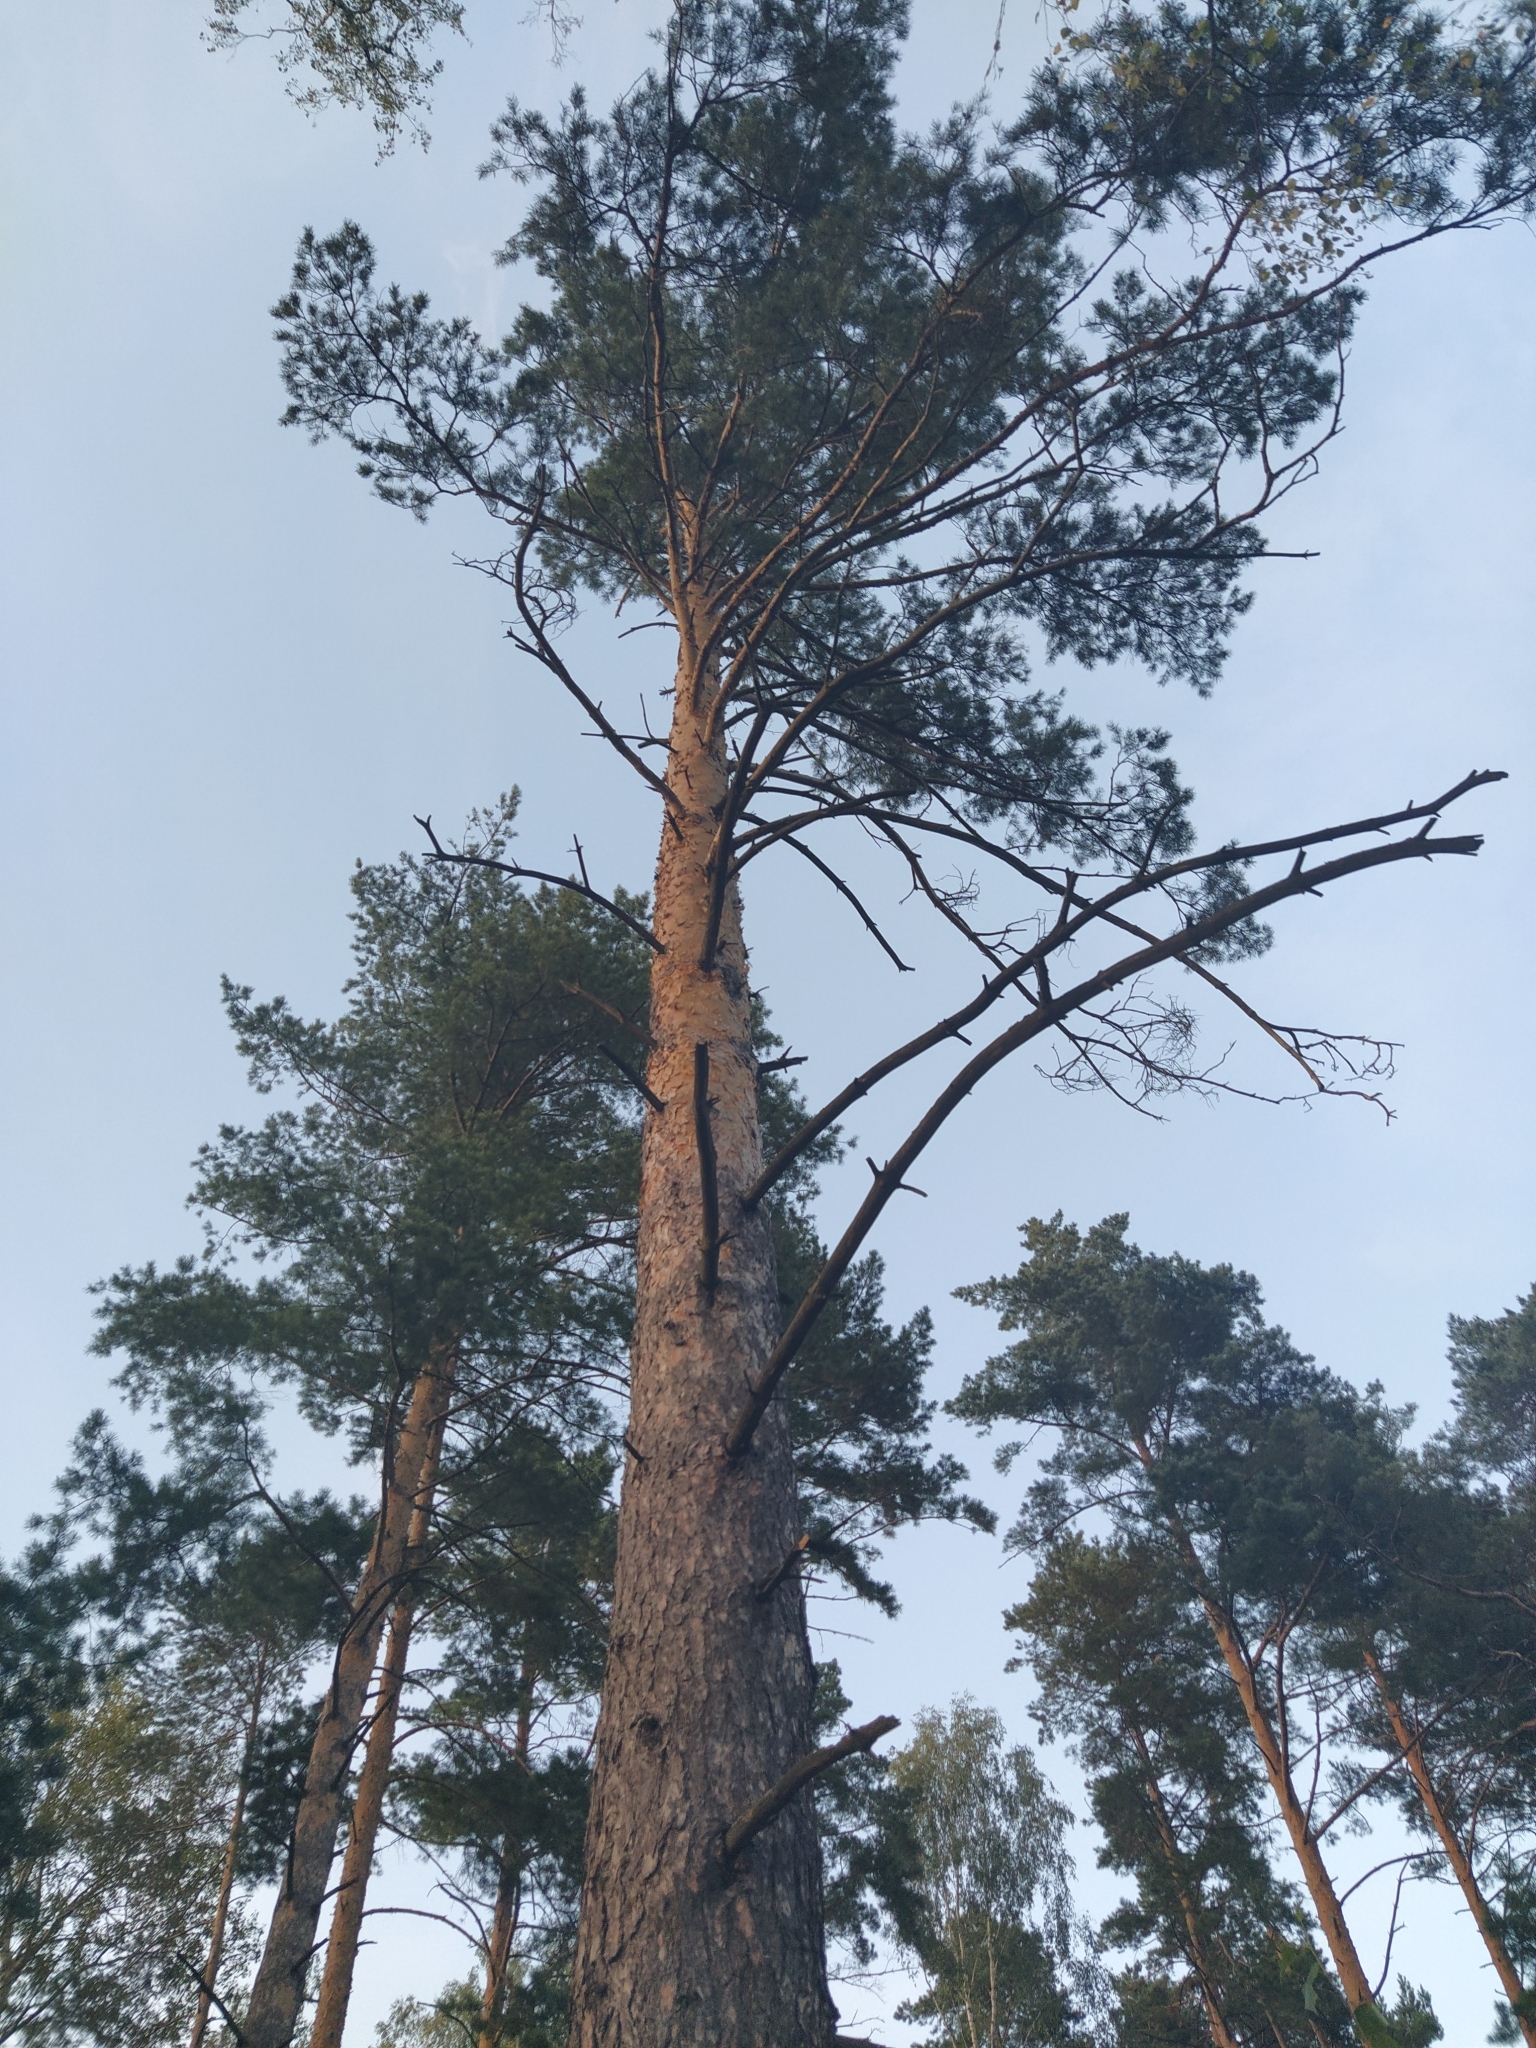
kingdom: Plantae
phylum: Tracheophyta
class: Pinopsida
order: Pinales
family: Pinaceae
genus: Pinus
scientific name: Pinus sylvestris
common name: Scots pine
